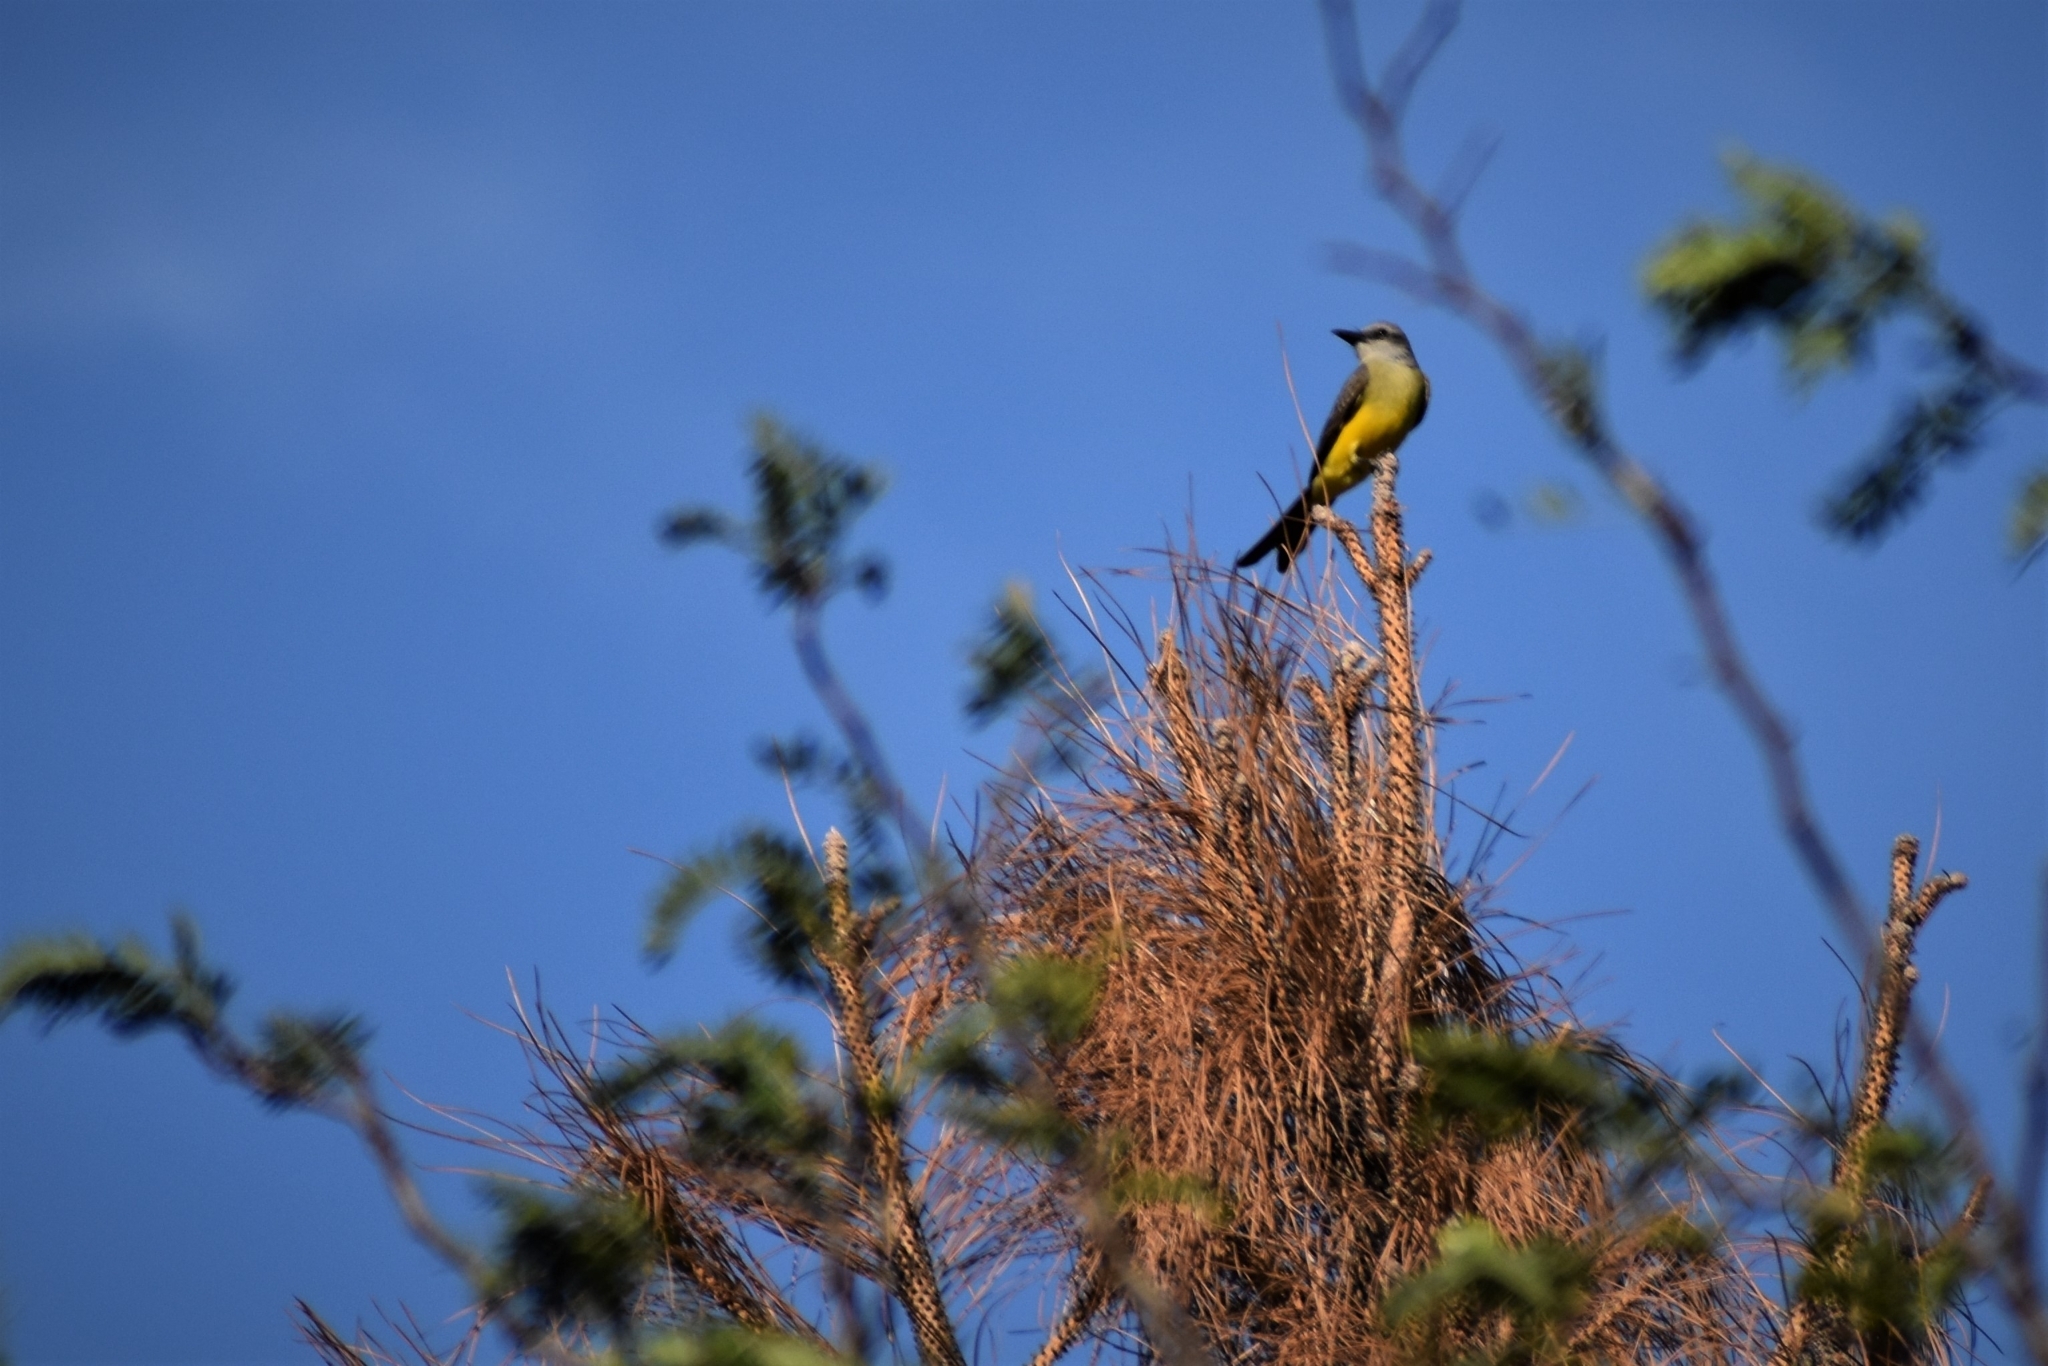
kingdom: Animalia
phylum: Chordata
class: Aves
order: Passeriformes
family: Tyrannidae
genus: Tyrannus
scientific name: Tyrannus melancholicus
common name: Tropical kingbird
